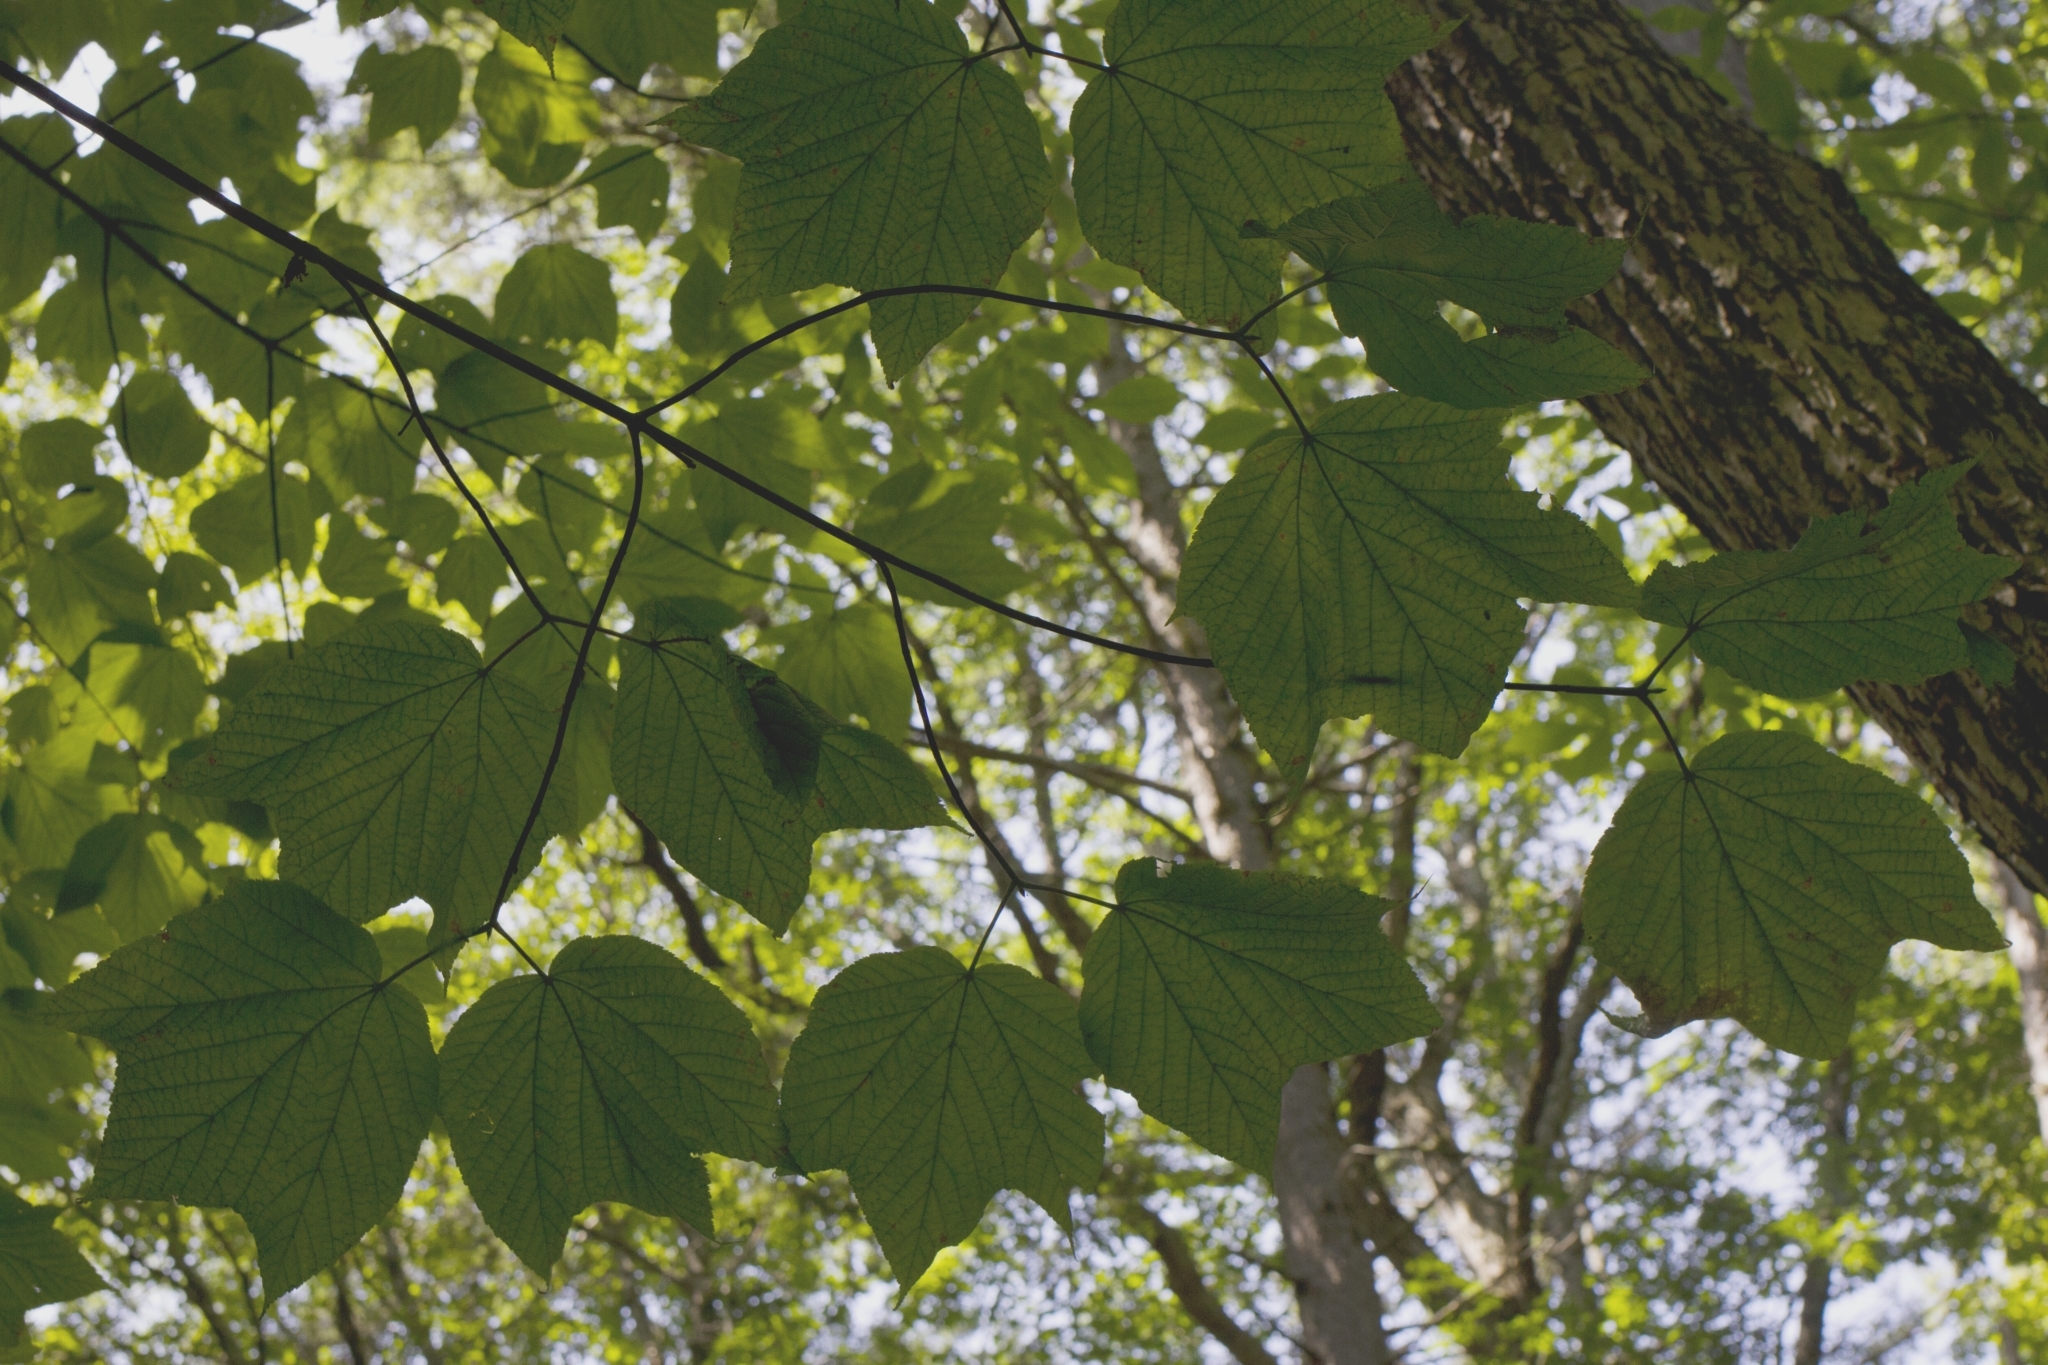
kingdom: Plantae
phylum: Tracheophyta
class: Magnoliopsida
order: Sapindales
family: Sapindaceae
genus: Acer
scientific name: Acer pensylvanicum
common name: Moosewood
